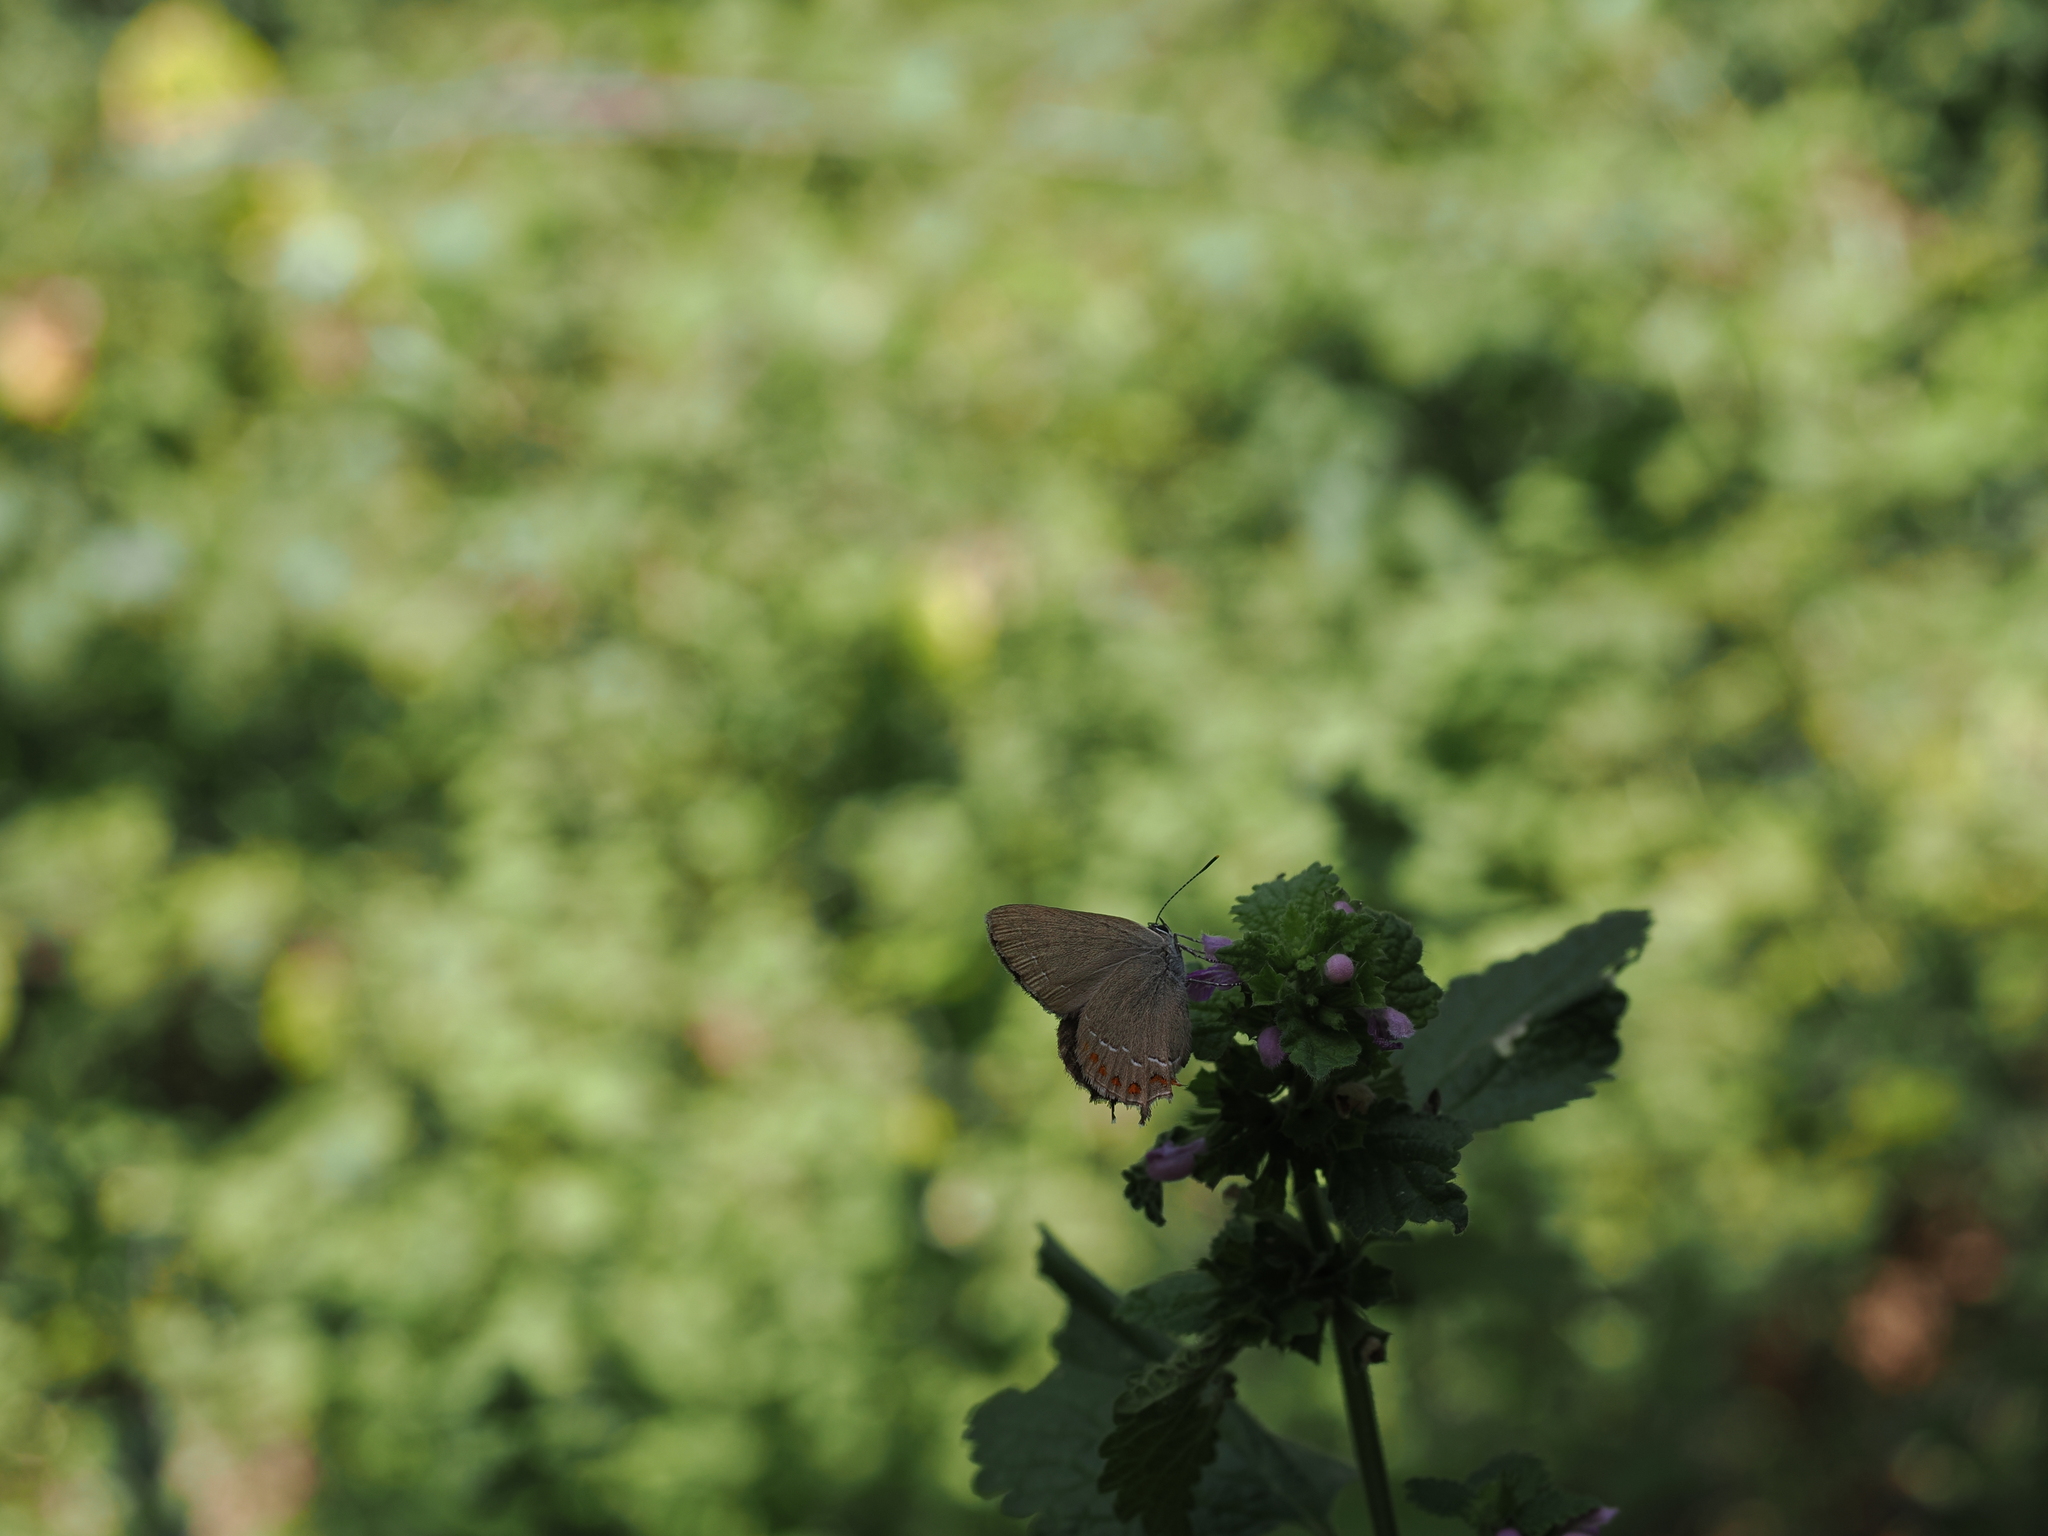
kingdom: Animalia
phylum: Arthropoda
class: Insecta
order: Lepidoptera
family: Lycaenidae
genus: Fixsenia
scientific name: Fixsenia esculi
